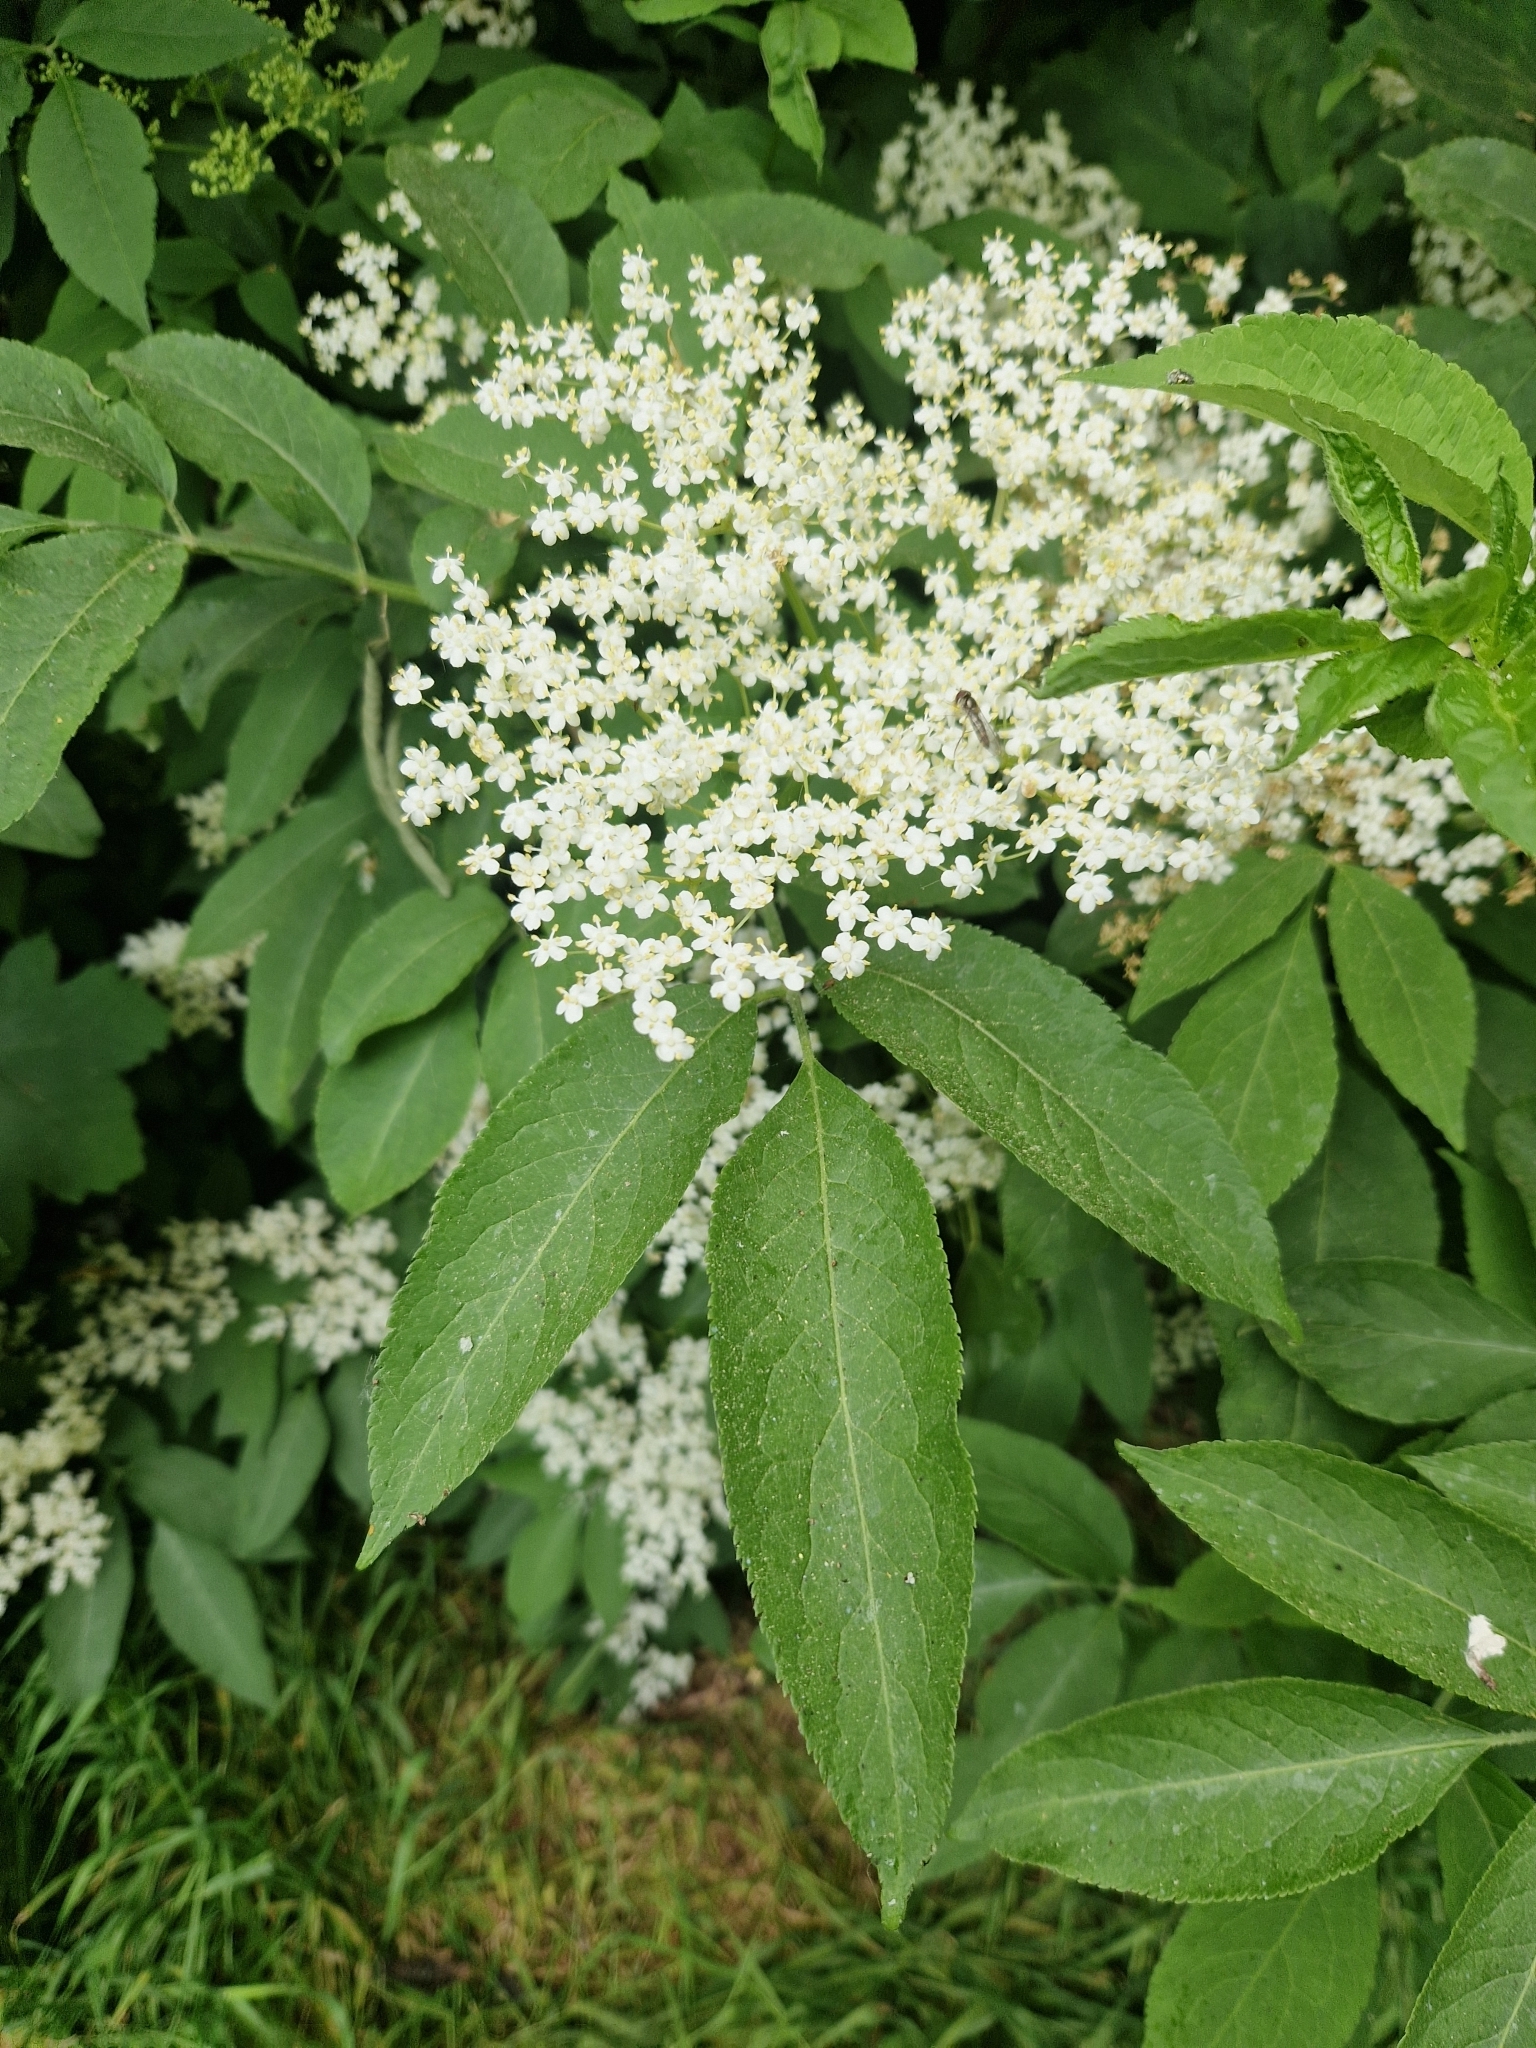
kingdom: Plantae
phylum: Tracheophyta
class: Magnoliopsida
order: Dipsacales
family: Viburnaceae
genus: Sambucus
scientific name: Sambucus nigra
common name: Elder
